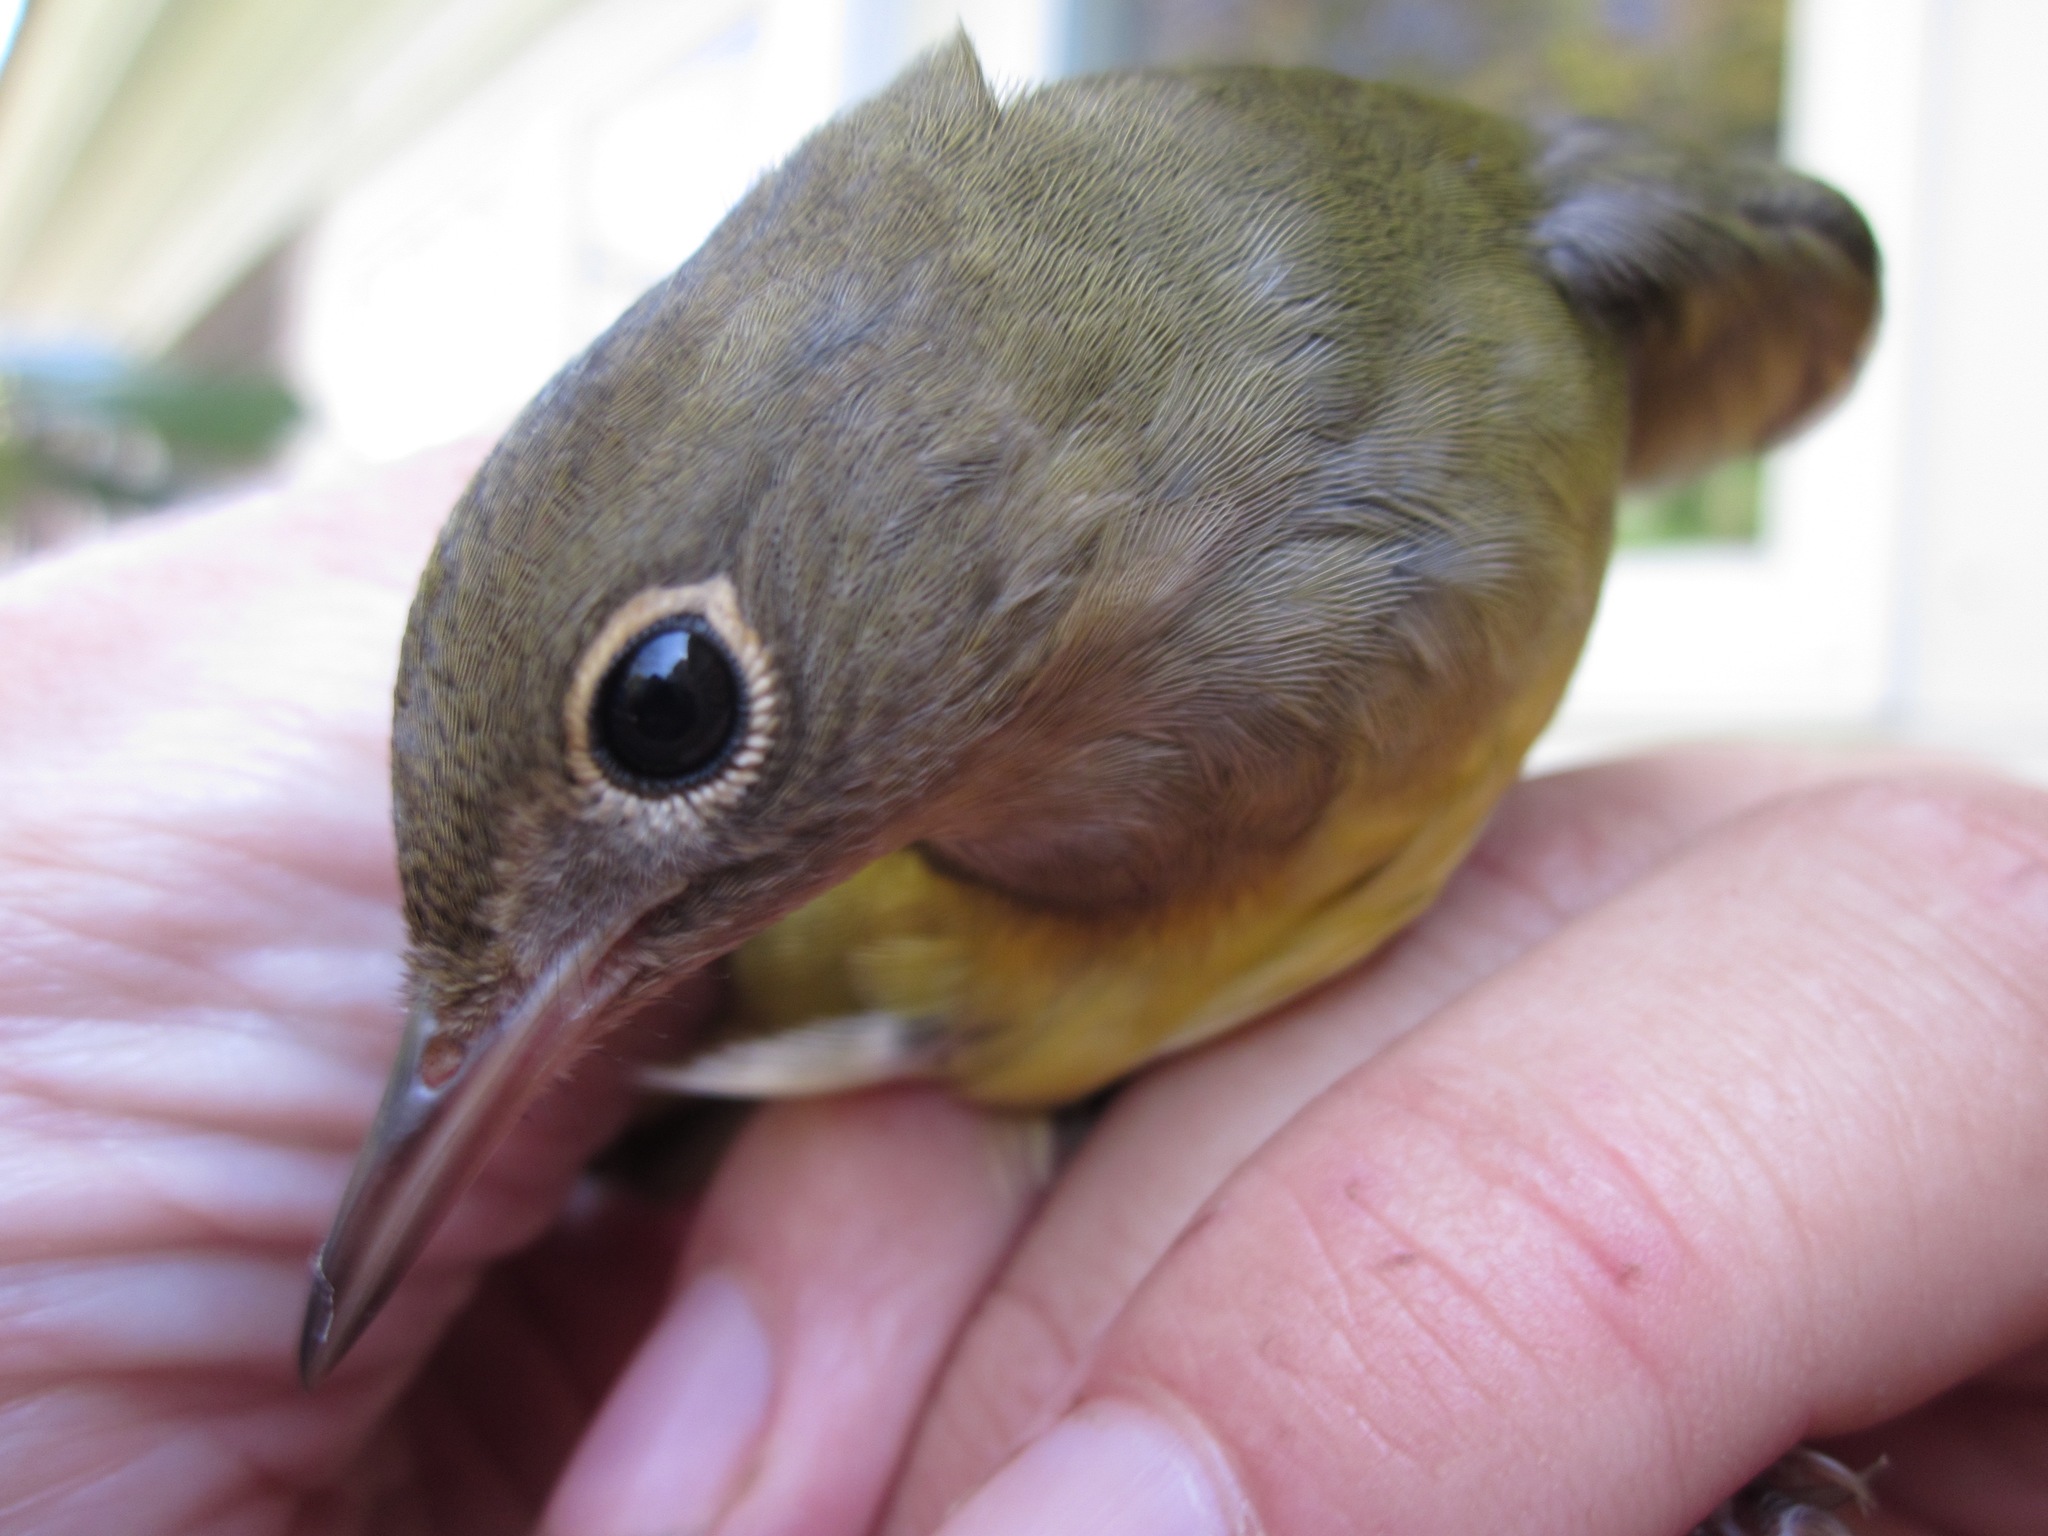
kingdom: Animalia
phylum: Chordata
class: Aves
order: Passeriformes
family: Parulidae
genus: Oporornis
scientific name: Oporornis agilis
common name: Connecticut warbler
